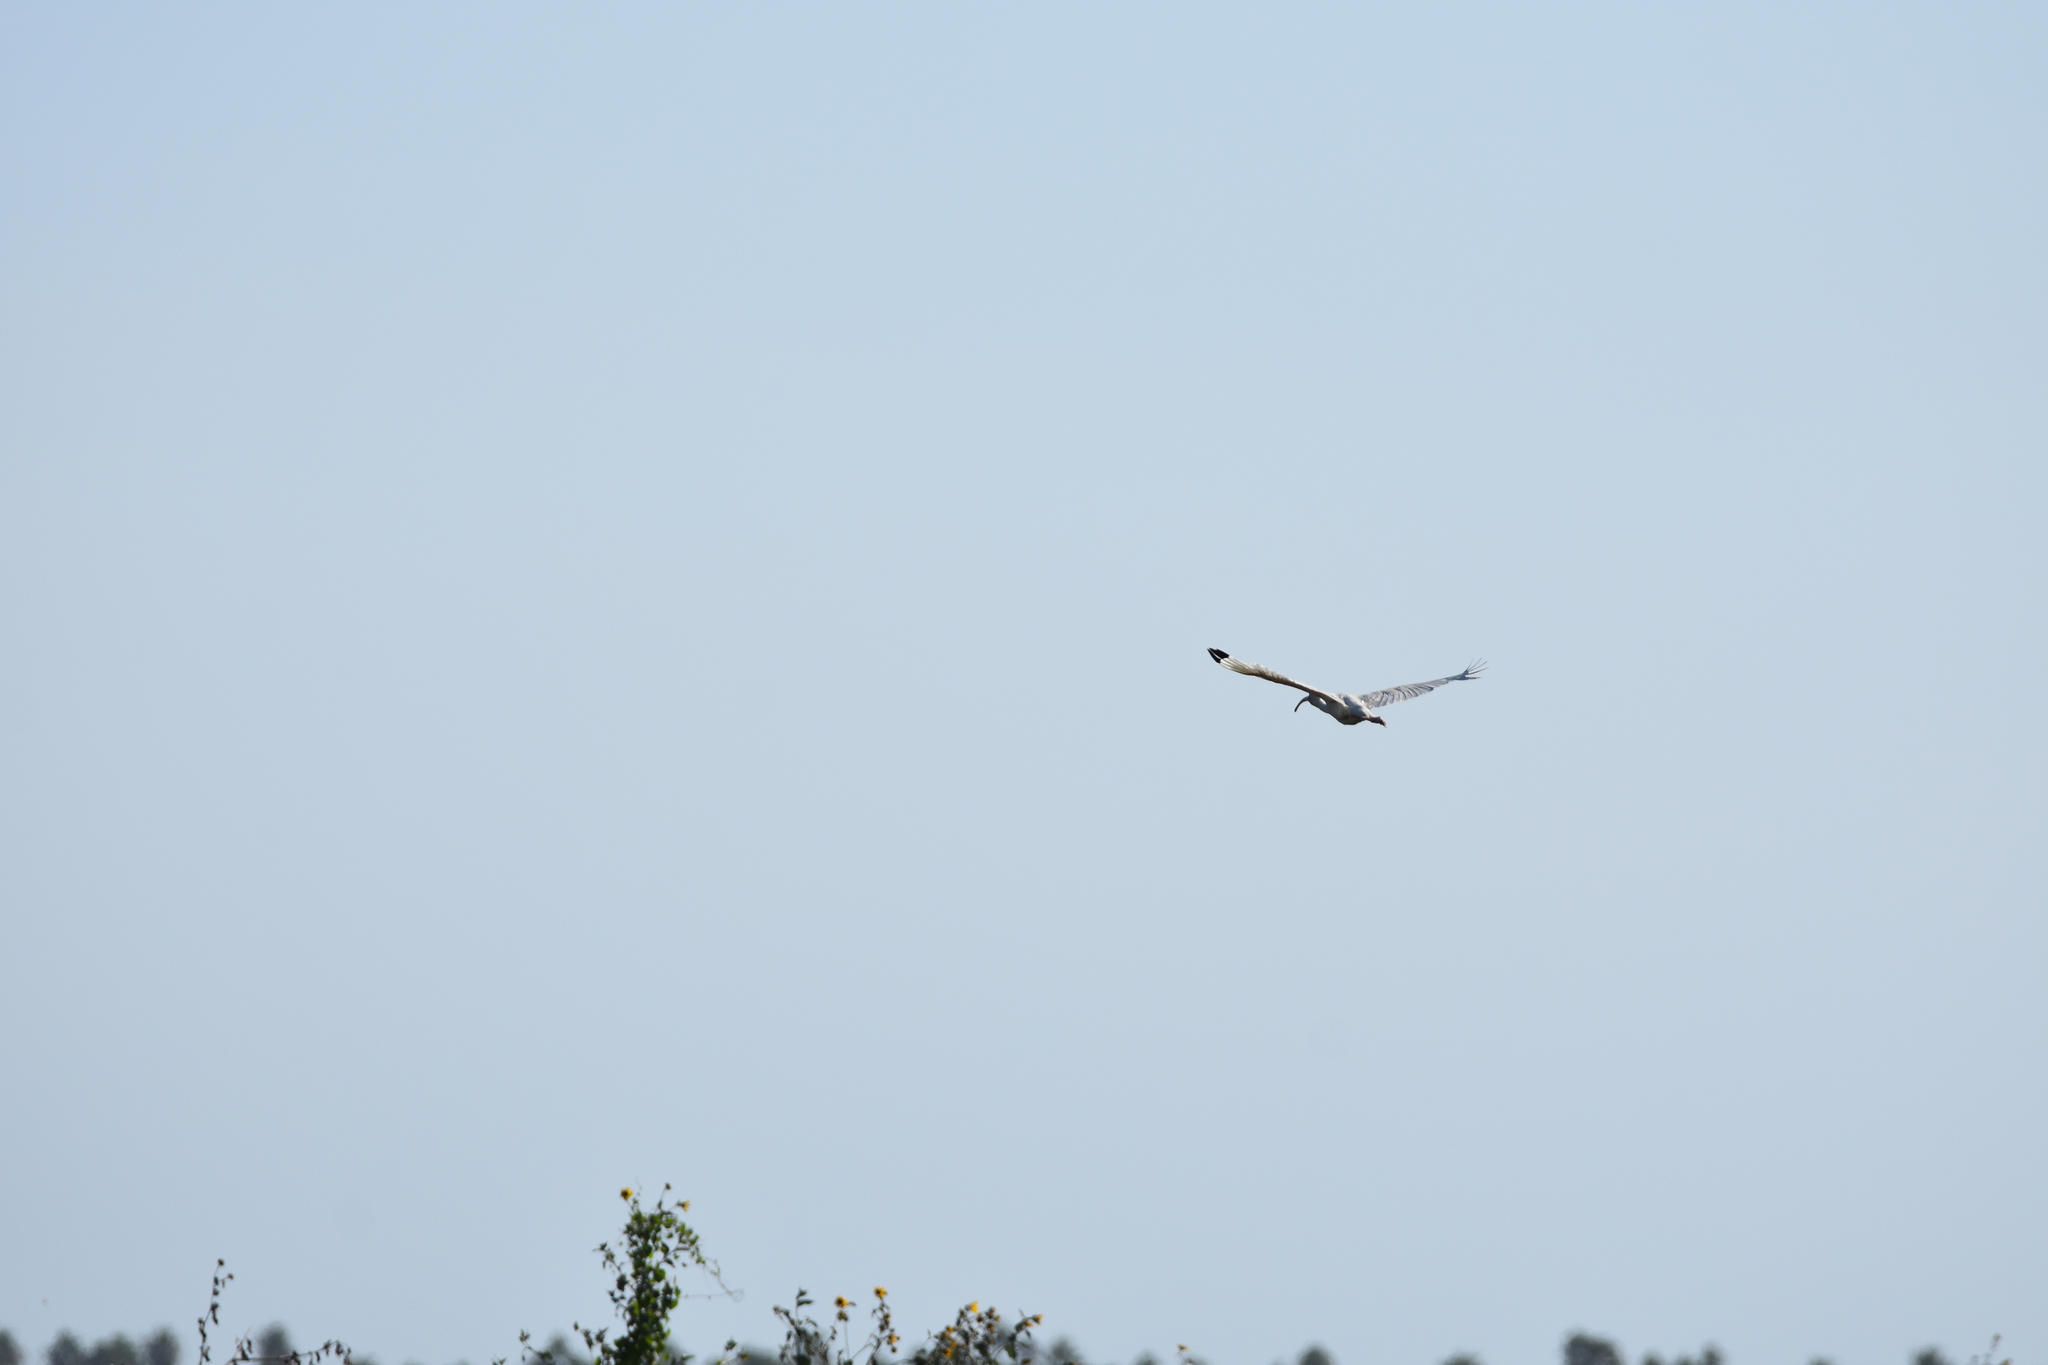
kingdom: Animalia
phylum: Chordata
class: Aves
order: Pelecaniformes
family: Threskiornithidae
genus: Eudocimus
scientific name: Eudocimus albus
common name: White ibis
